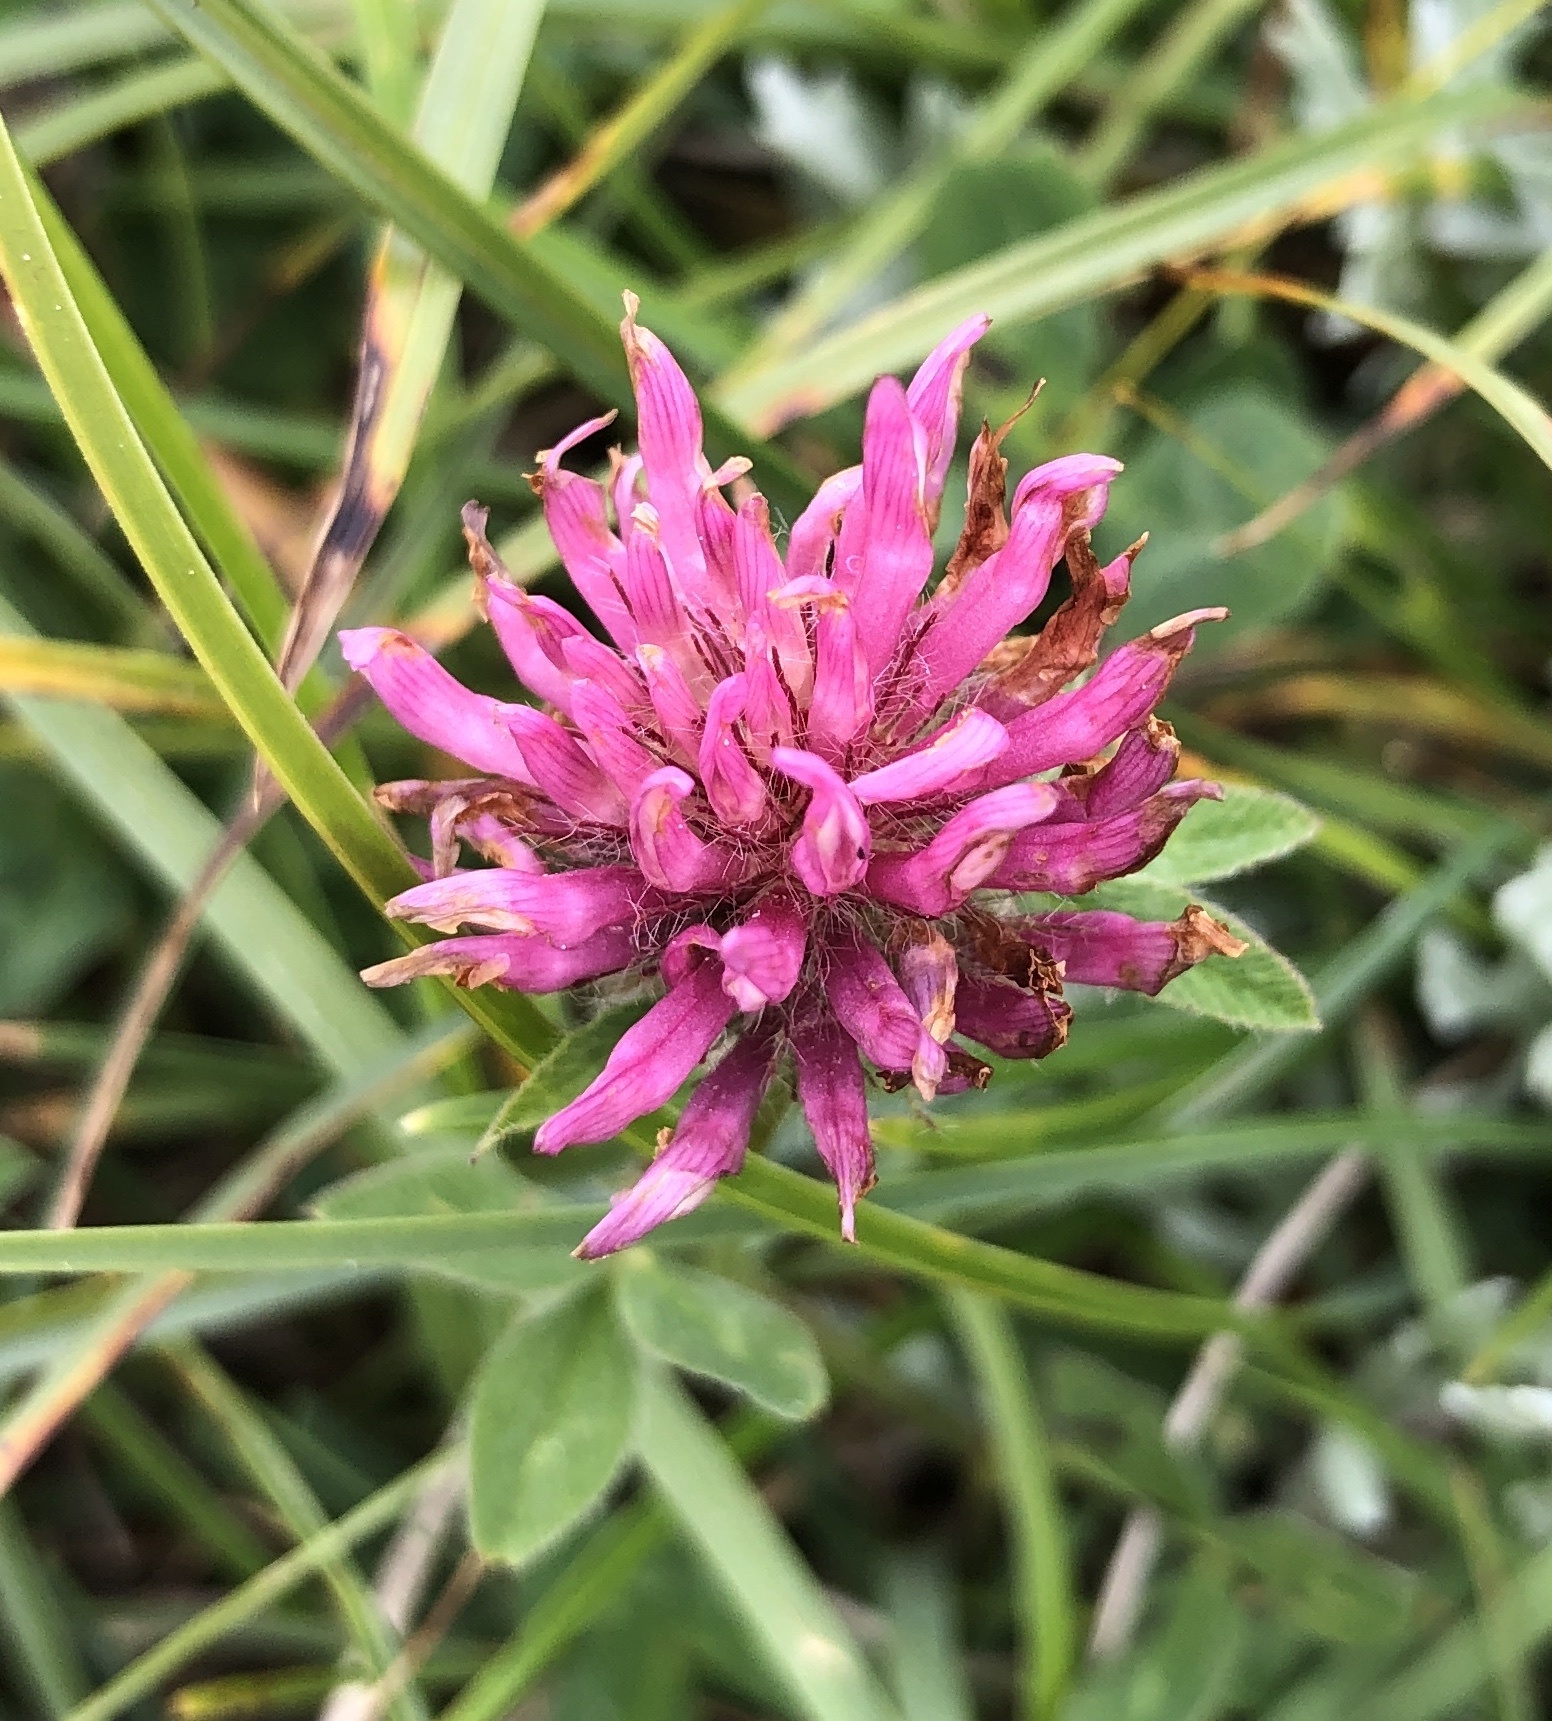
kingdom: Plantae
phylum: Tracheophyta
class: Magnoliopsida
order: Fabales
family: Fabaceae
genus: Trifolium
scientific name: Trifolium pratense
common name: Red clover
